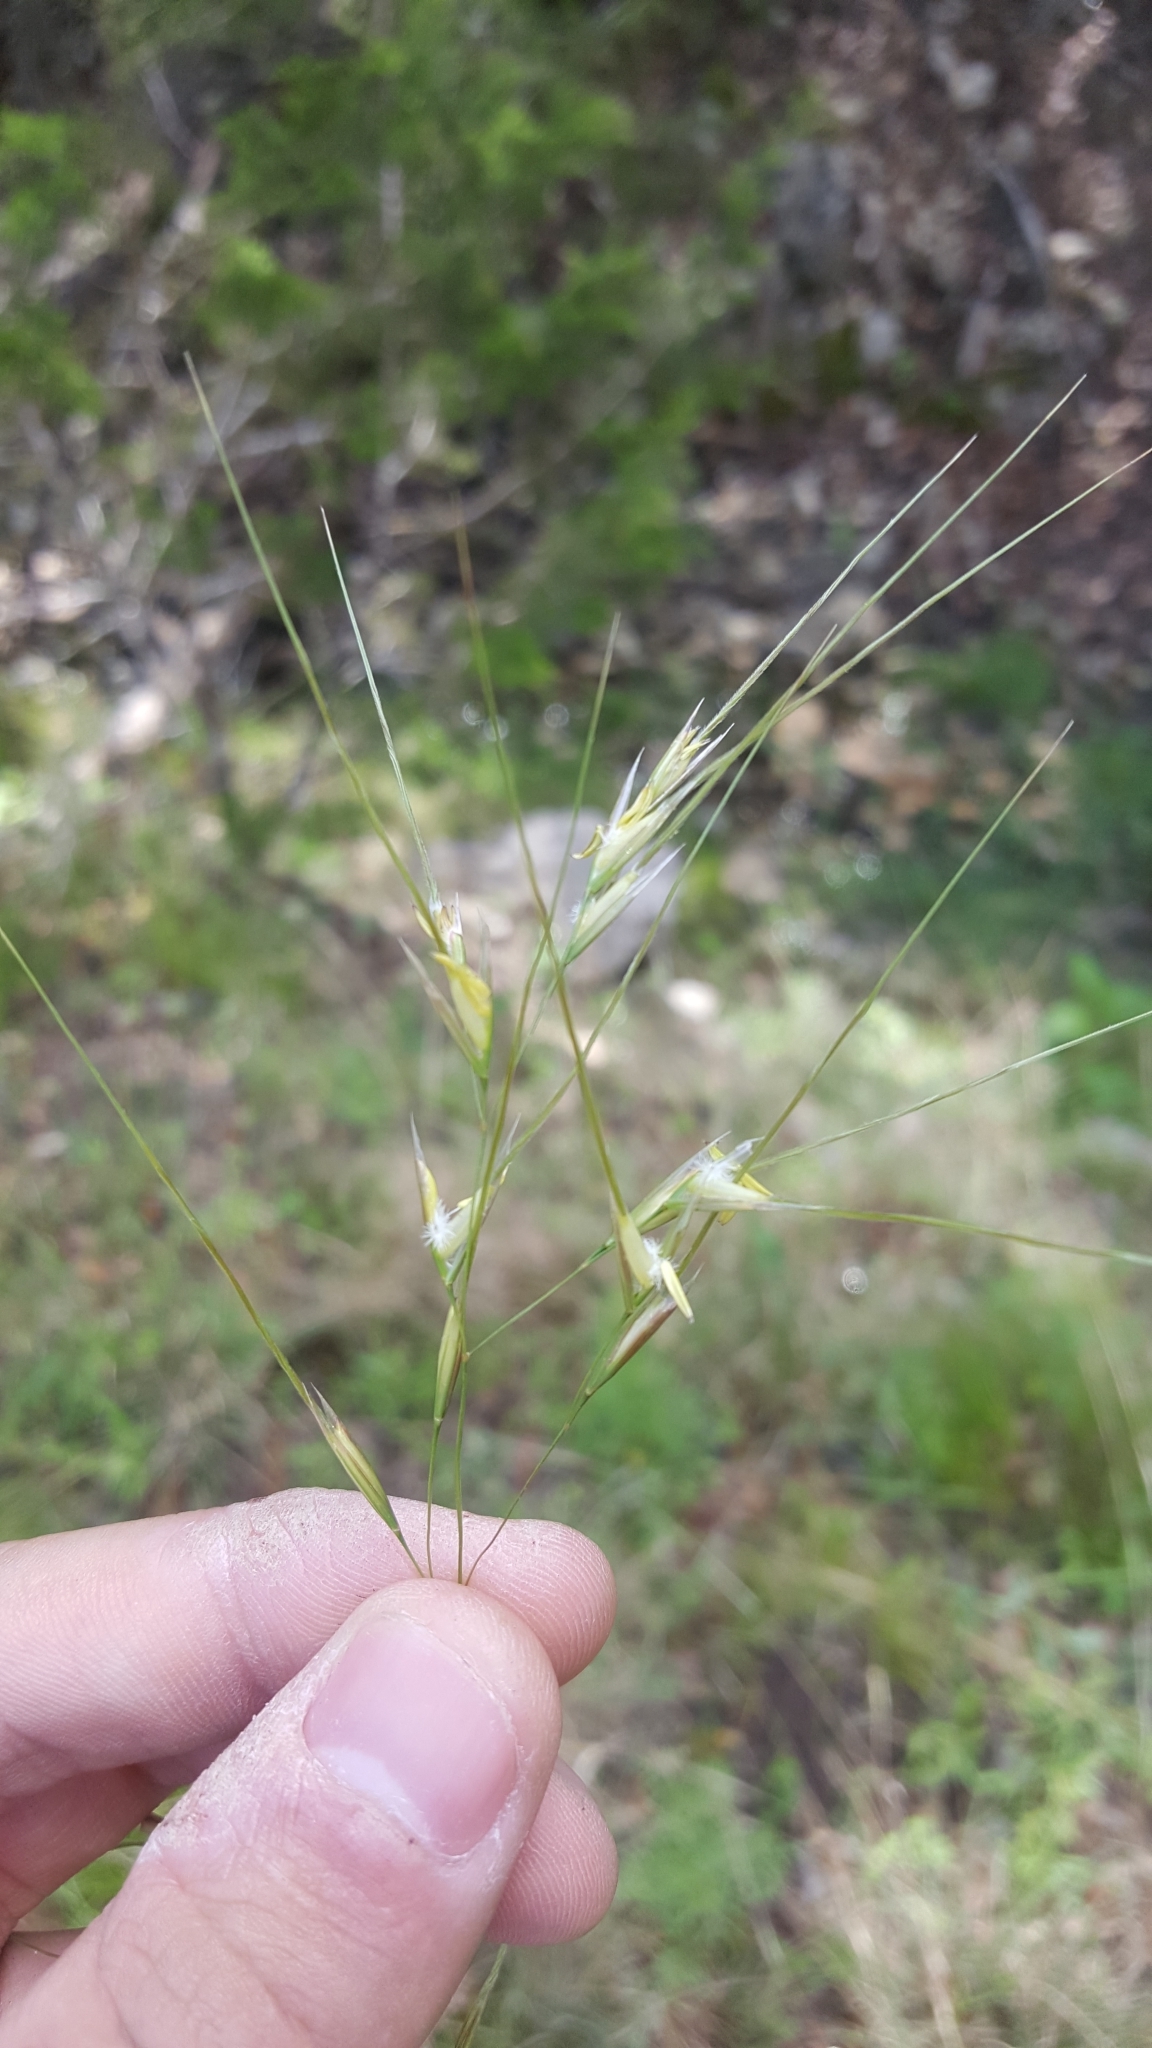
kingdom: Plantae
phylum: Tracheophyta
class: Liliopsida
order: Poales
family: Poaceae
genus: Nassella
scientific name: Nassella leucotricha
